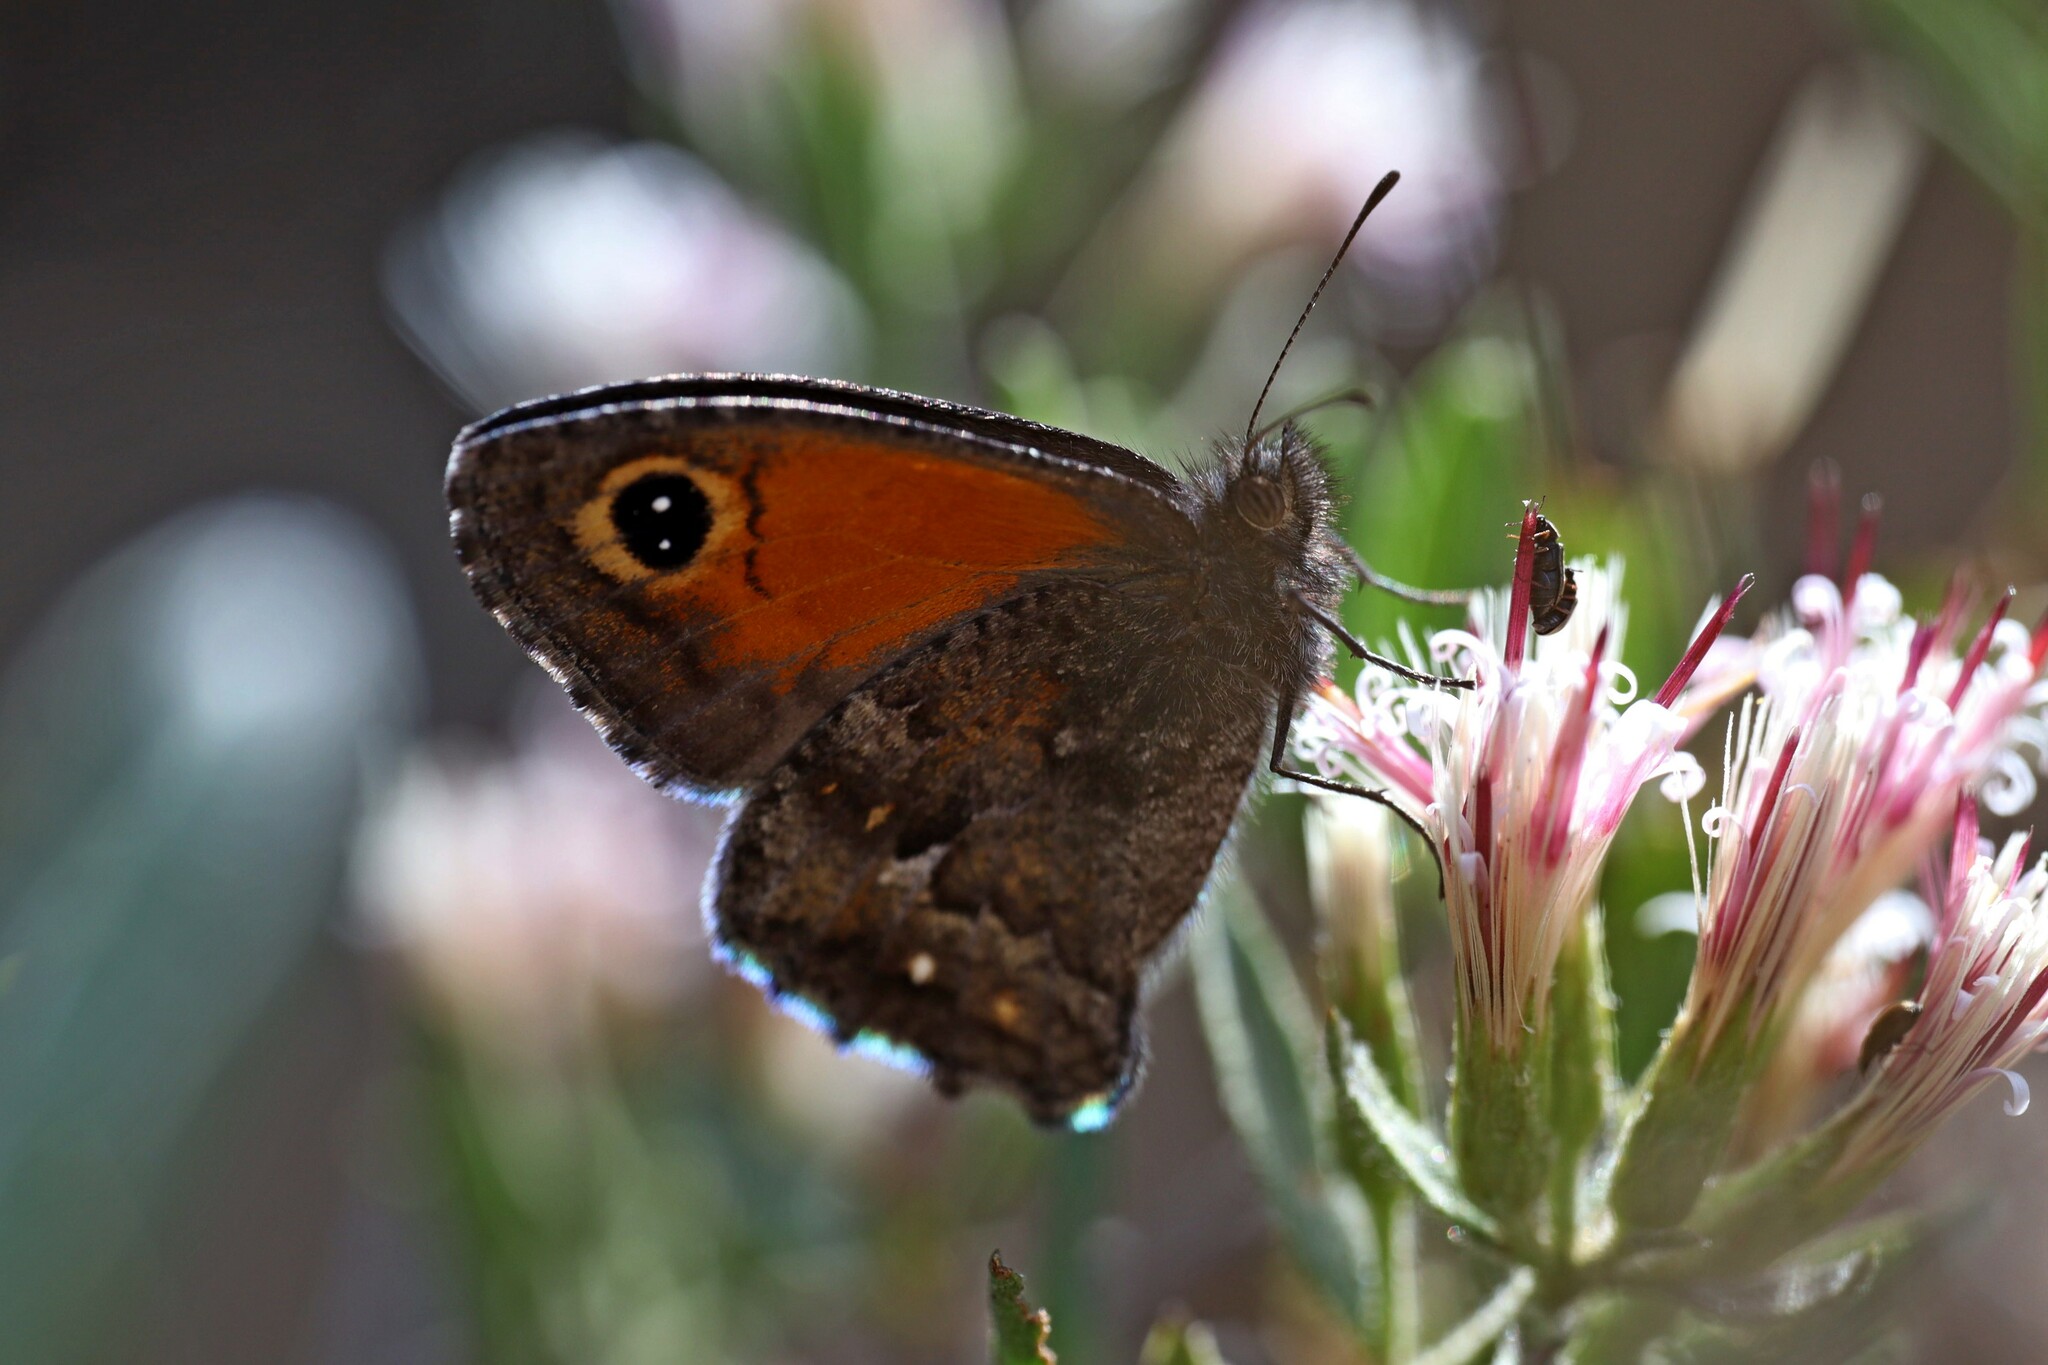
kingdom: Animalia
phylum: Arthropoda
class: Insecta
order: Lepidoptera
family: Nymphalidae
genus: Auca
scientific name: Auca coctei
